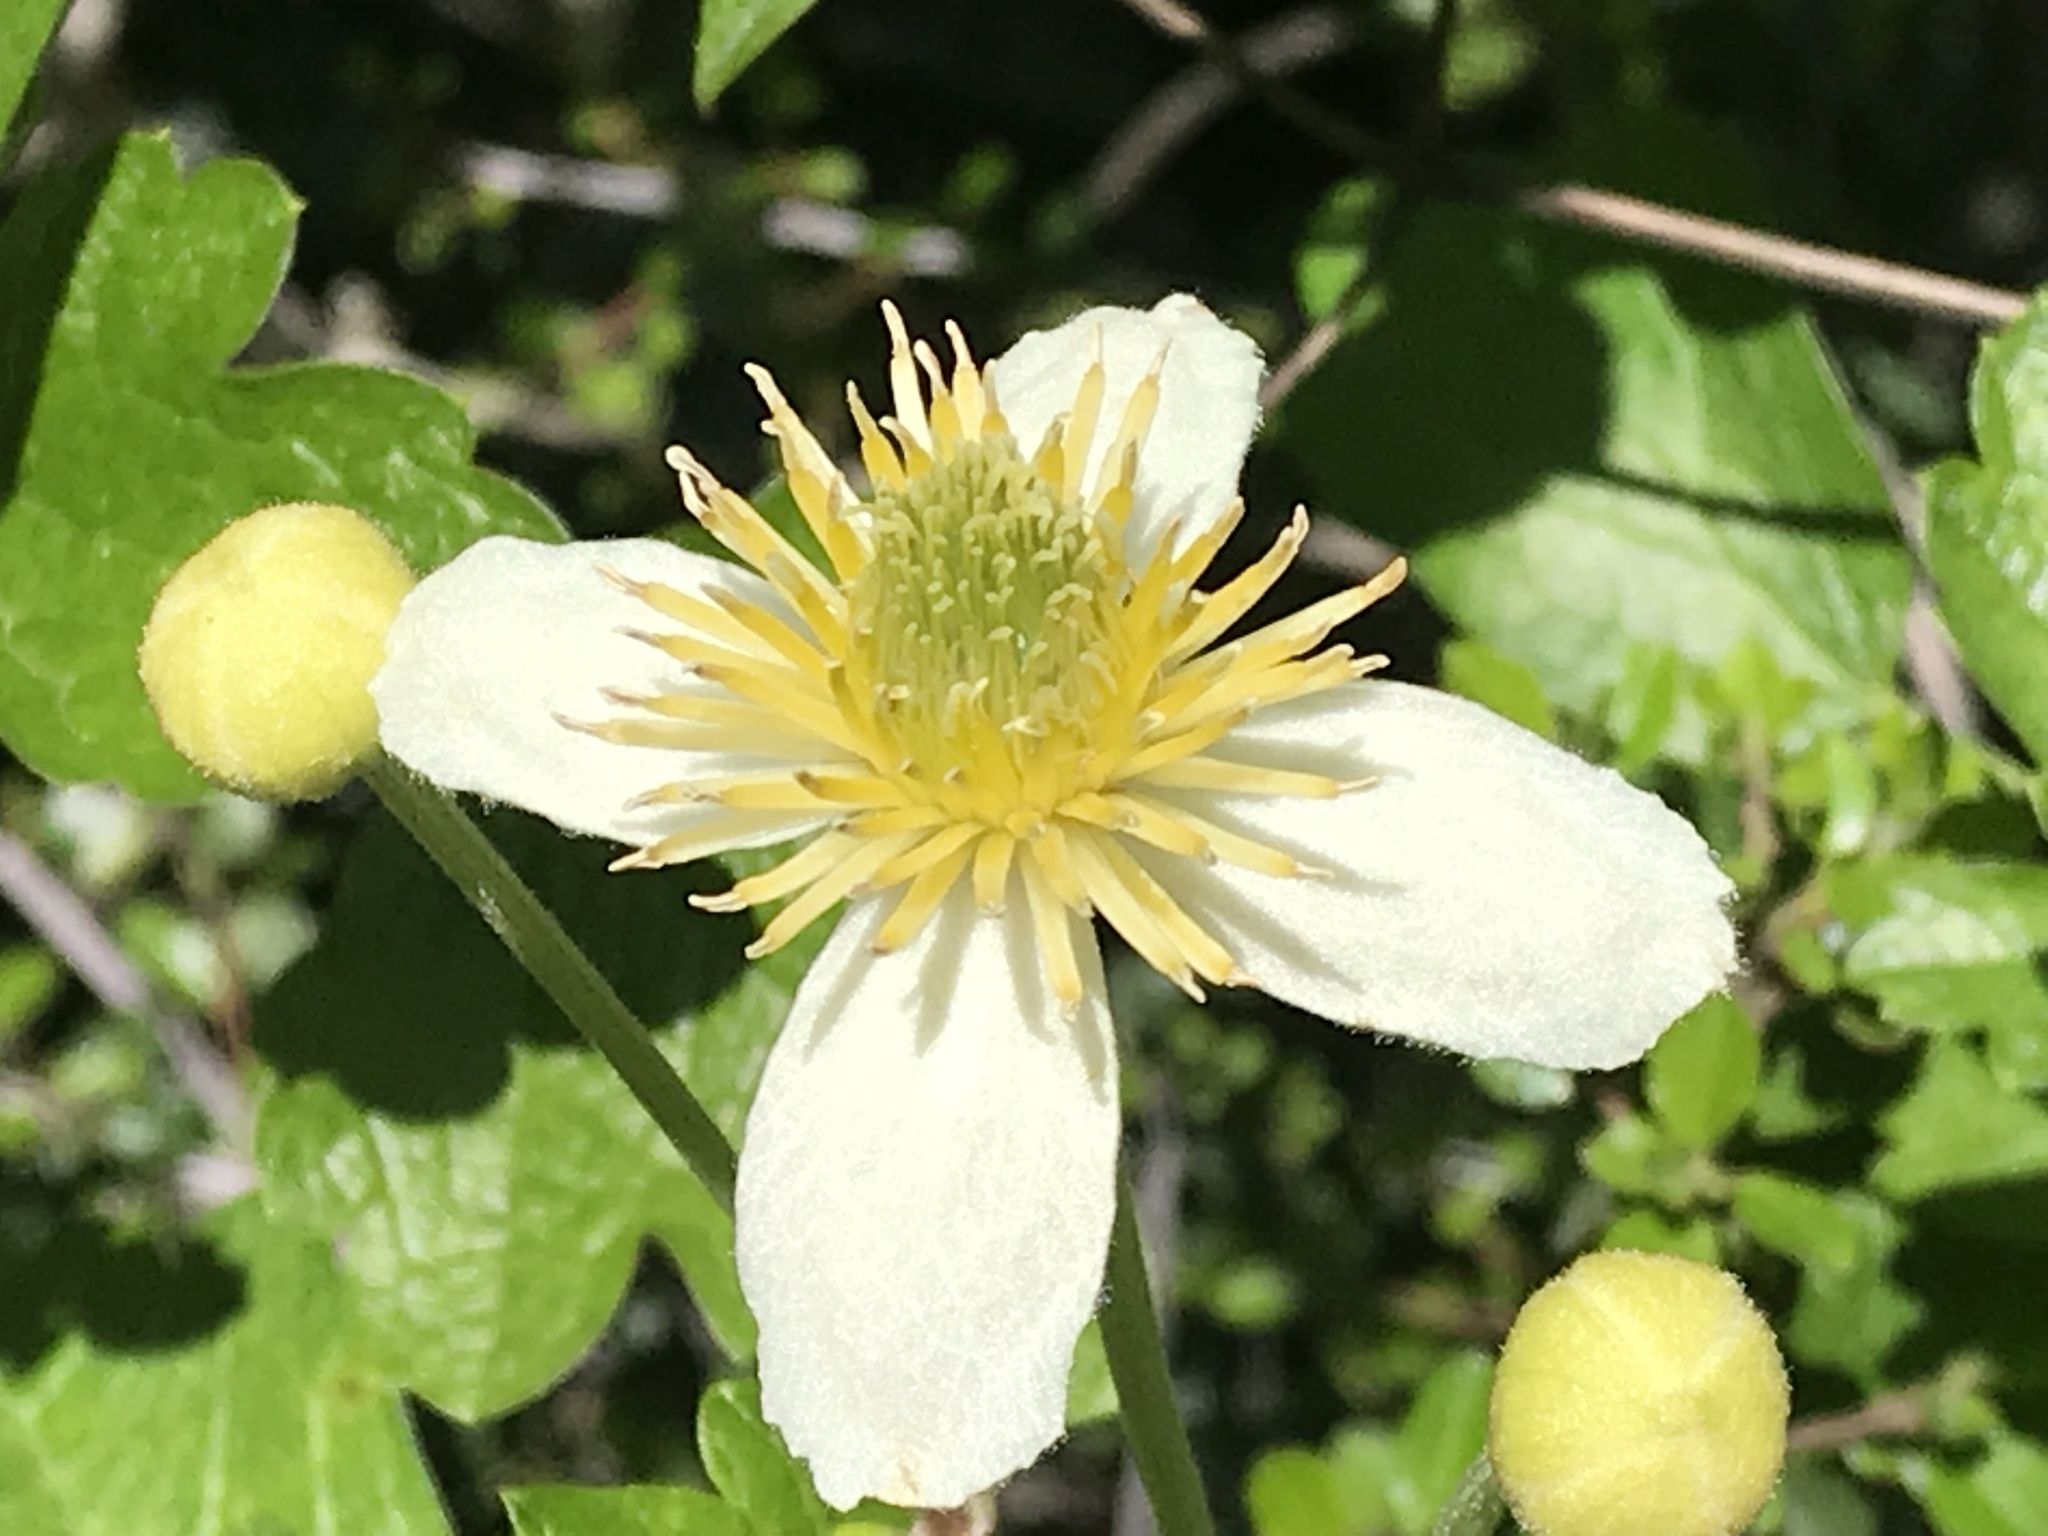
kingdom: Plantae
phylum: Tracheophyta
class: Magnoliopsida
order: Ranunculales
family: Ranunculaceae
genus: Clematis
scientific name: Clematis lasiantha
